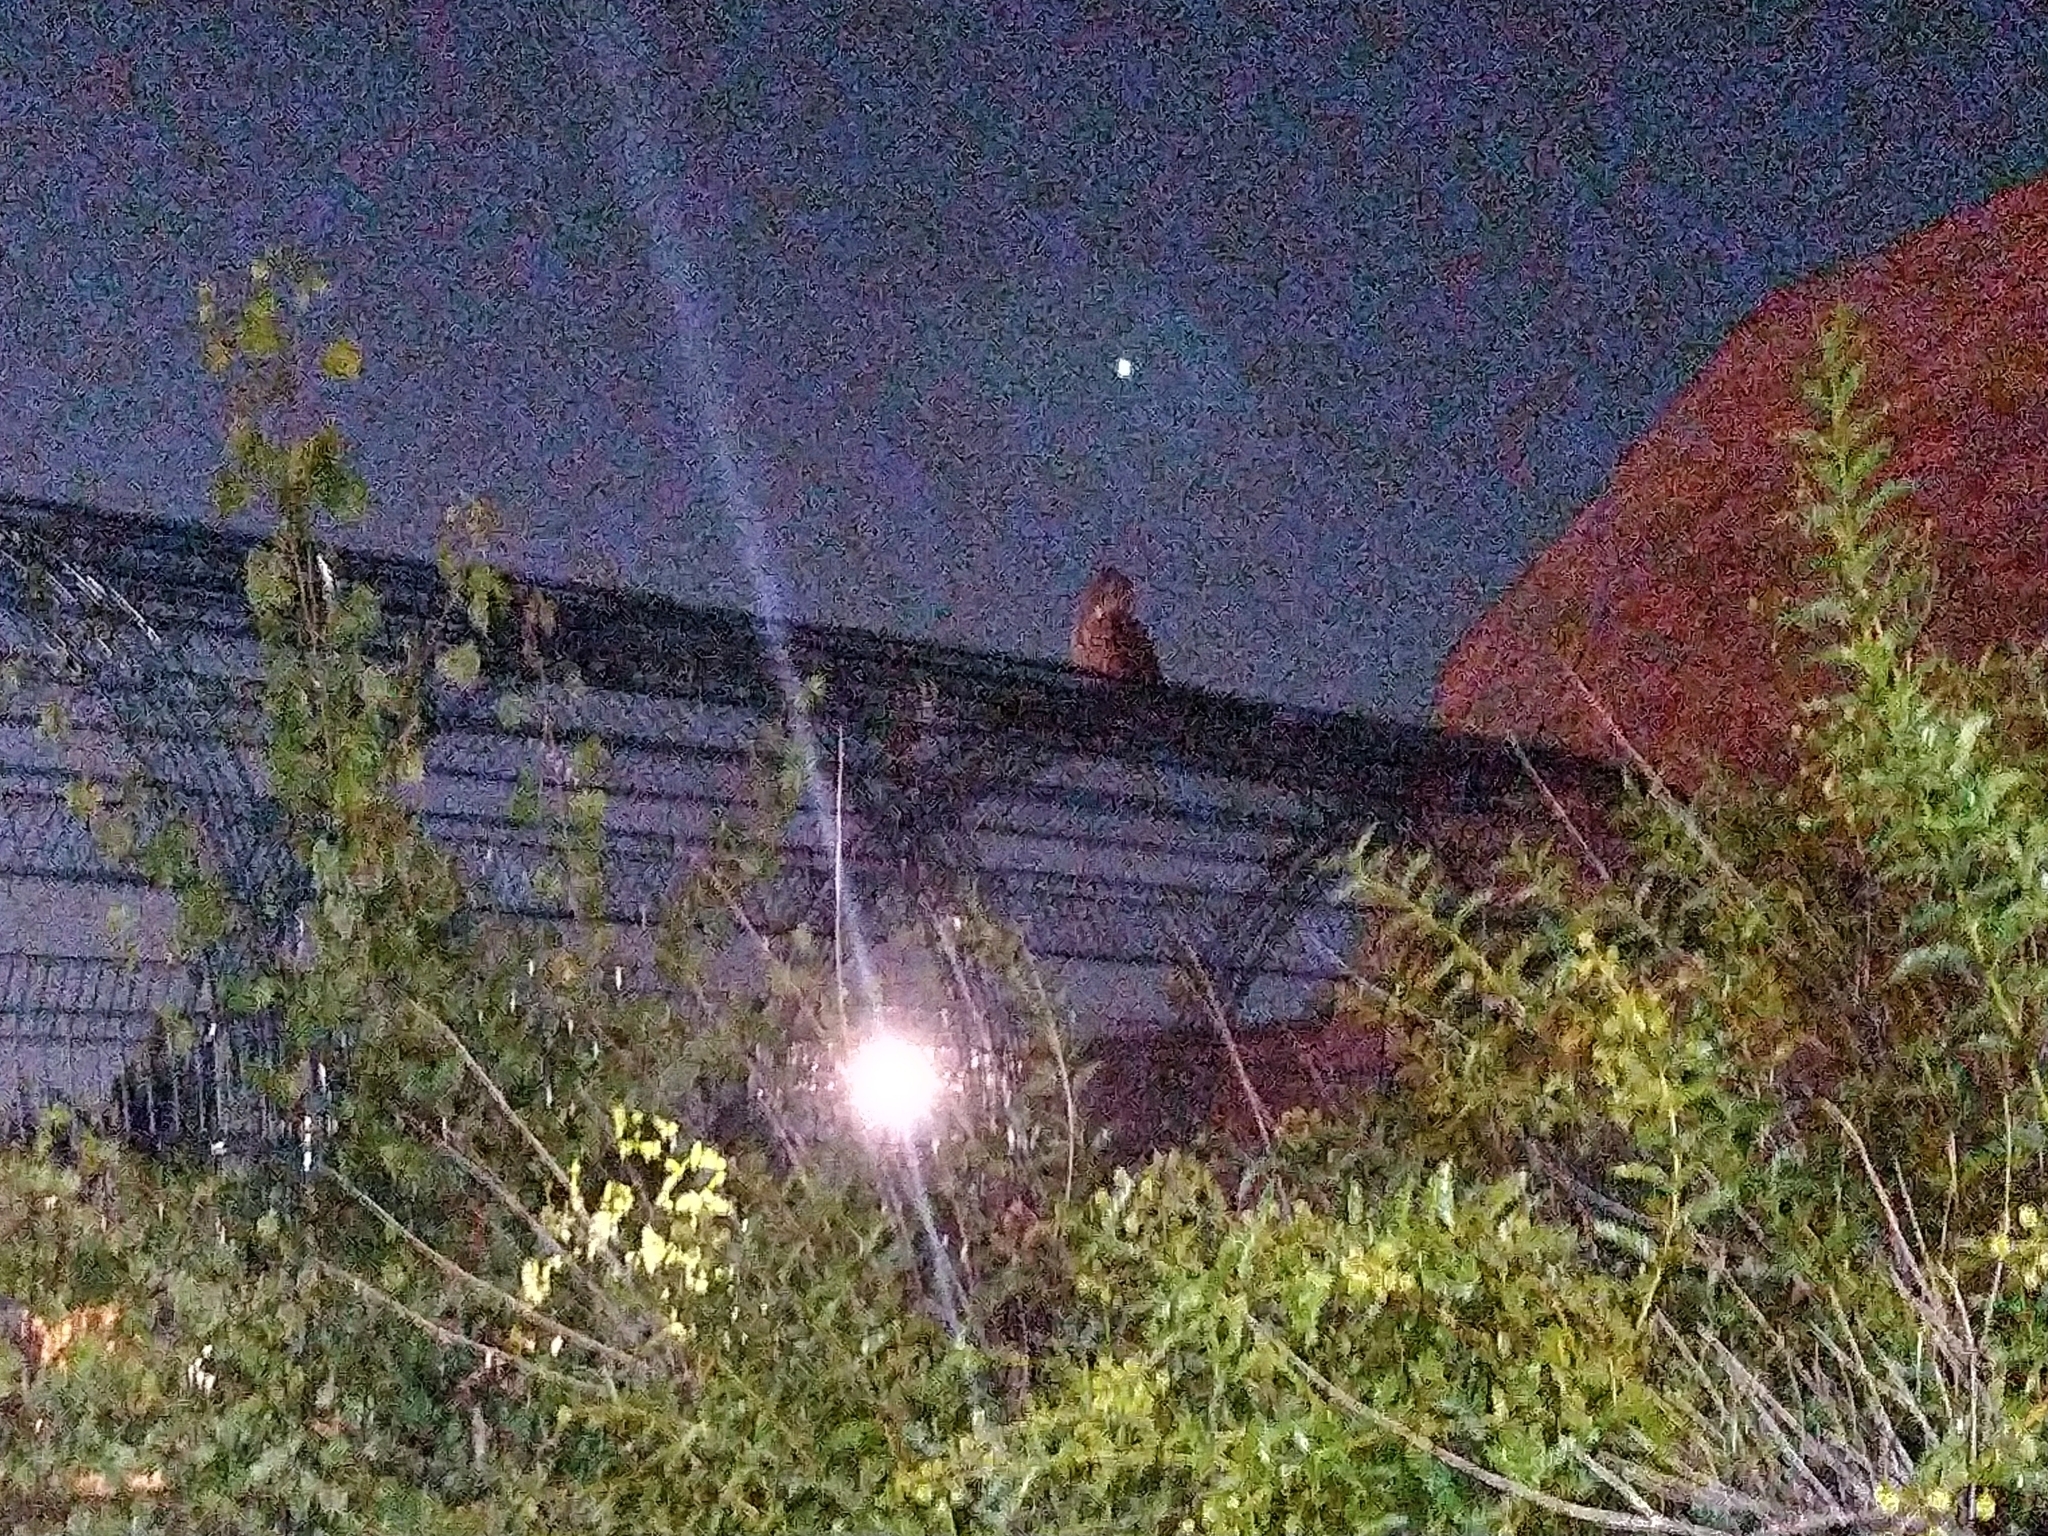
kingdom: Animalia
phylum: Chordata
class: Aves
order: Strigiformes
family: Strigidae
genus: Bubo
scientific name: Bubo virginianus
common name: Great horned owl
